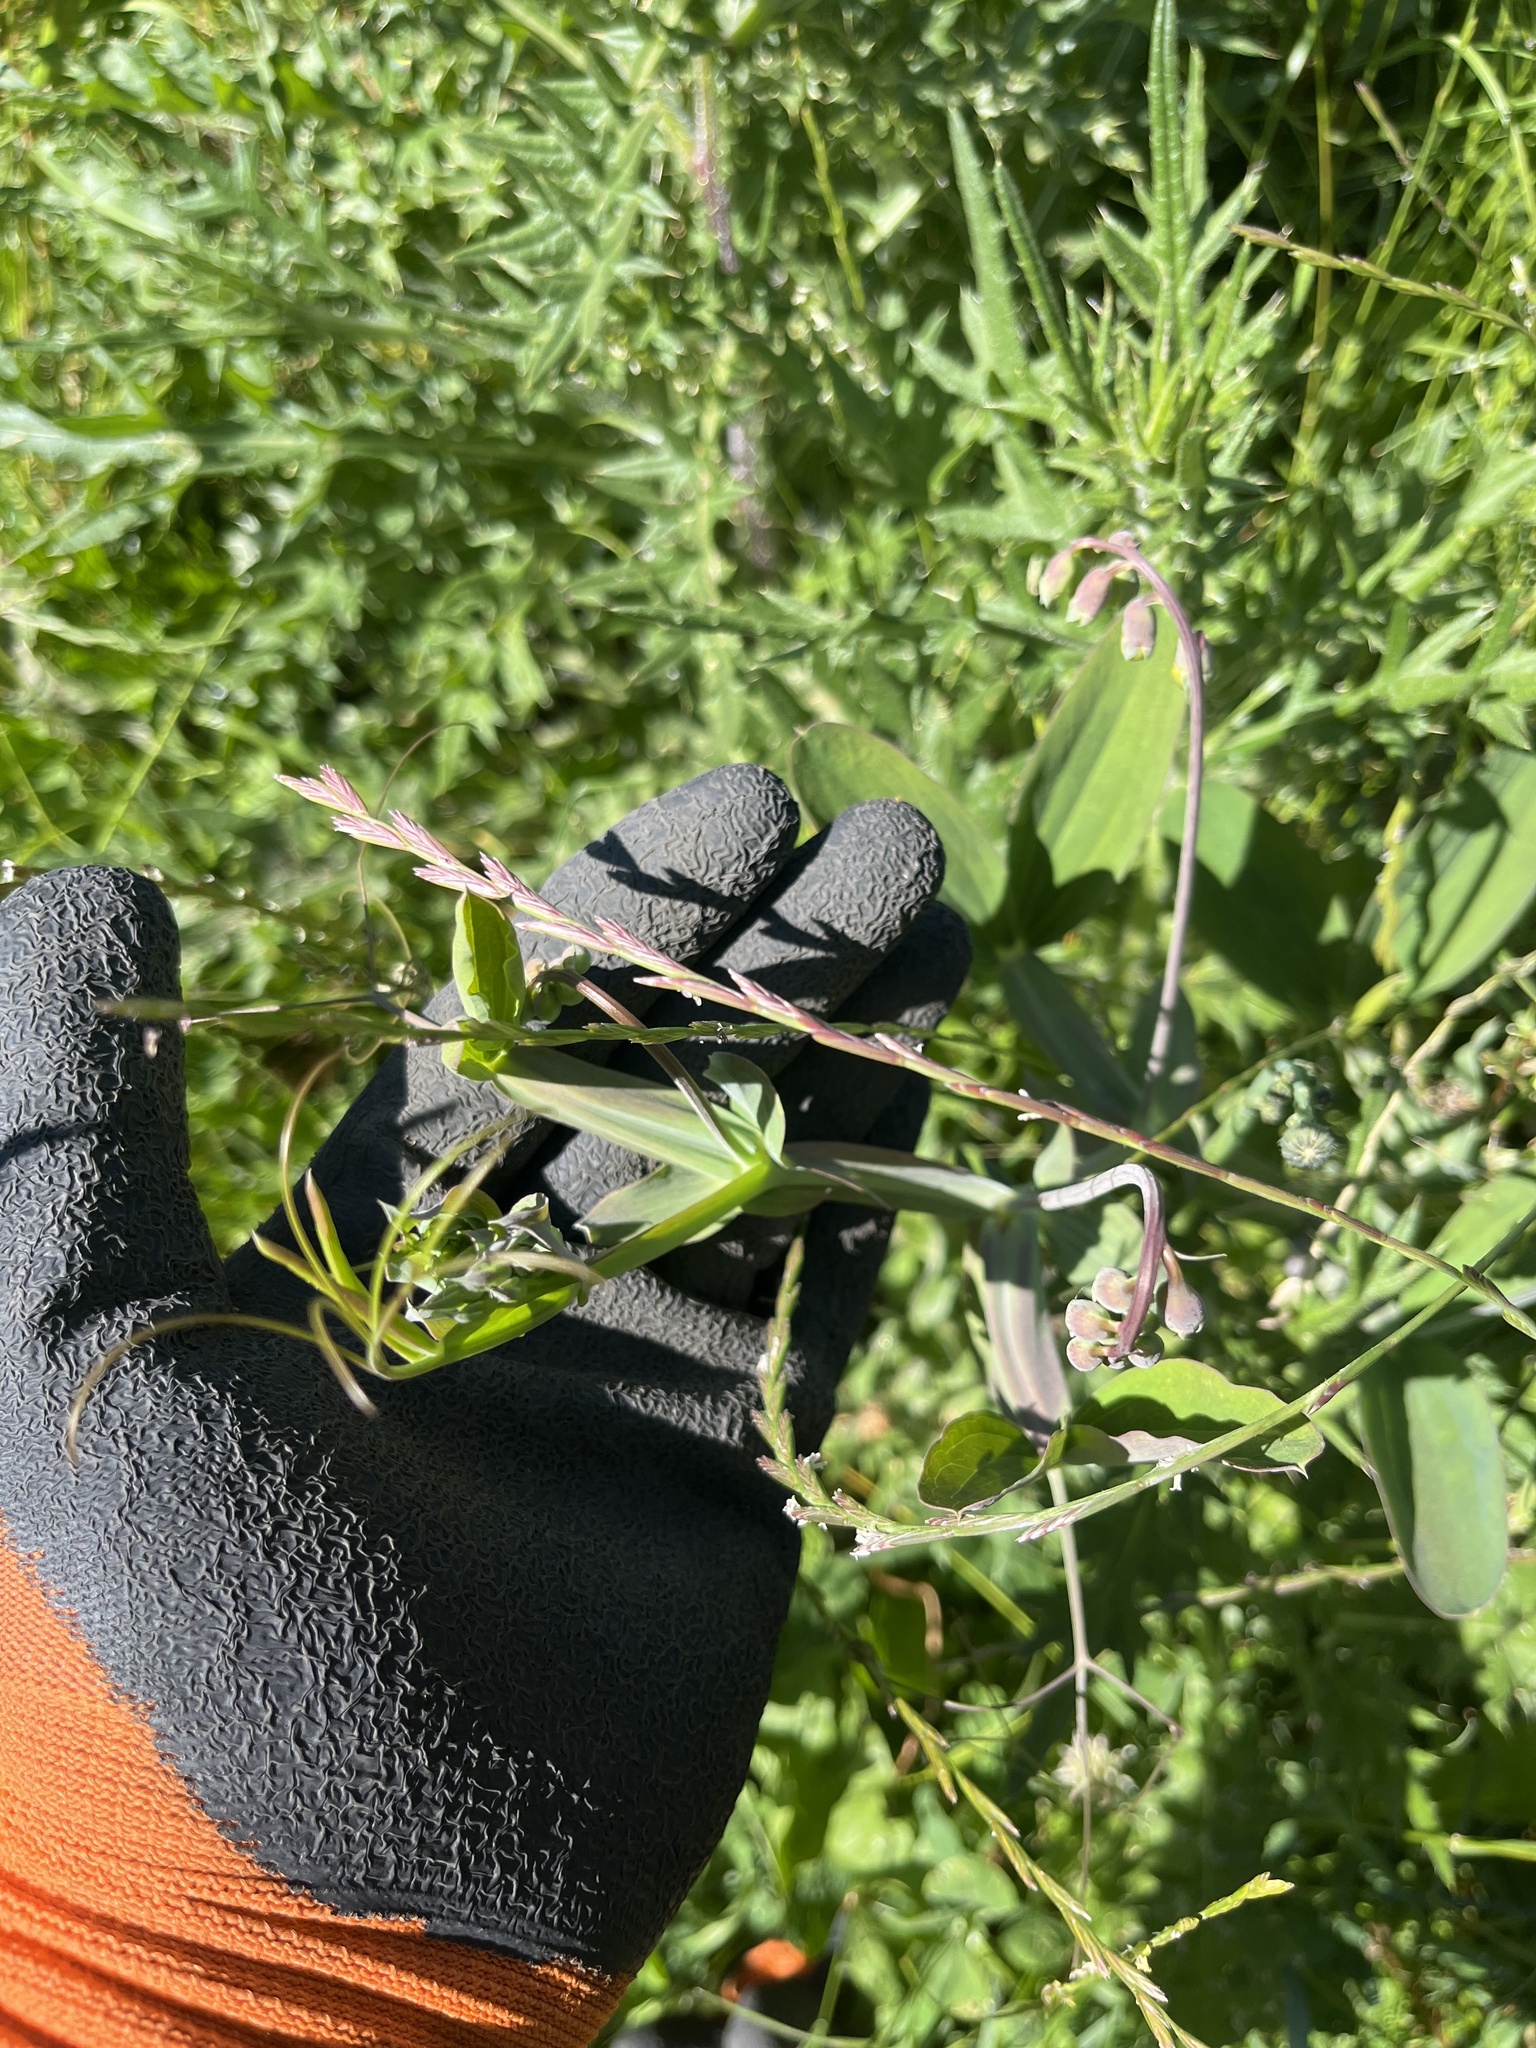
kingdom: Plantae
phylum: Tracheophyta
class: Magnoliopsida
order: Fabales
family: Fabaceae
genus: Lathyrus
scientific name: Lathyrus latifolius
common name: Perennial pea
